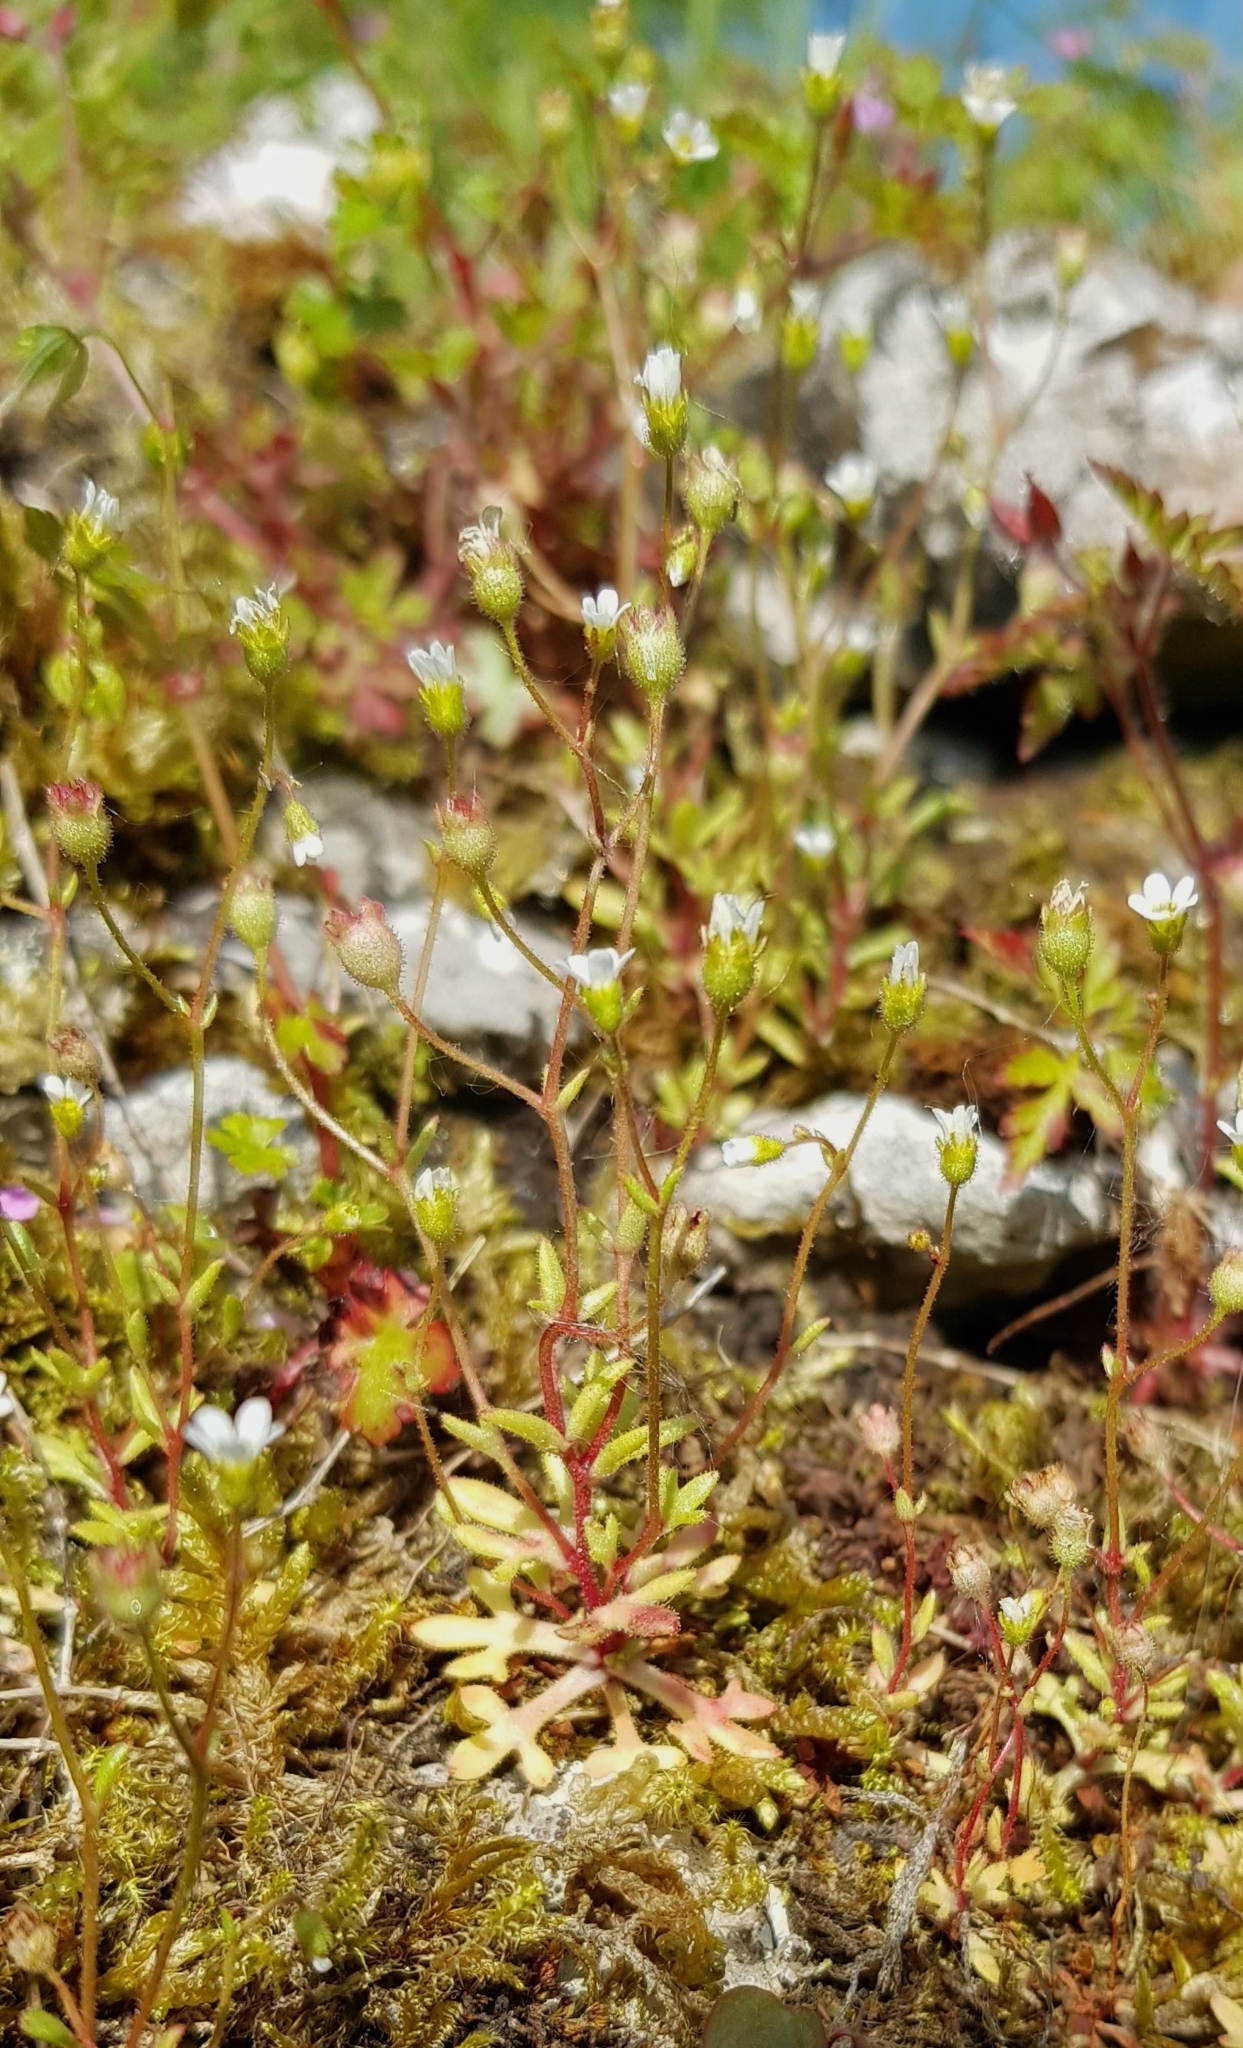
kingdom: Plantae
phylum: Tracheophyta
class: Magnoliopsida
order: Saxifragales
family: Saxifragaceae
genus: Saxifraga
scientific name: Saxifraga tridactylites
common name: Rue-leaved saxifrage
